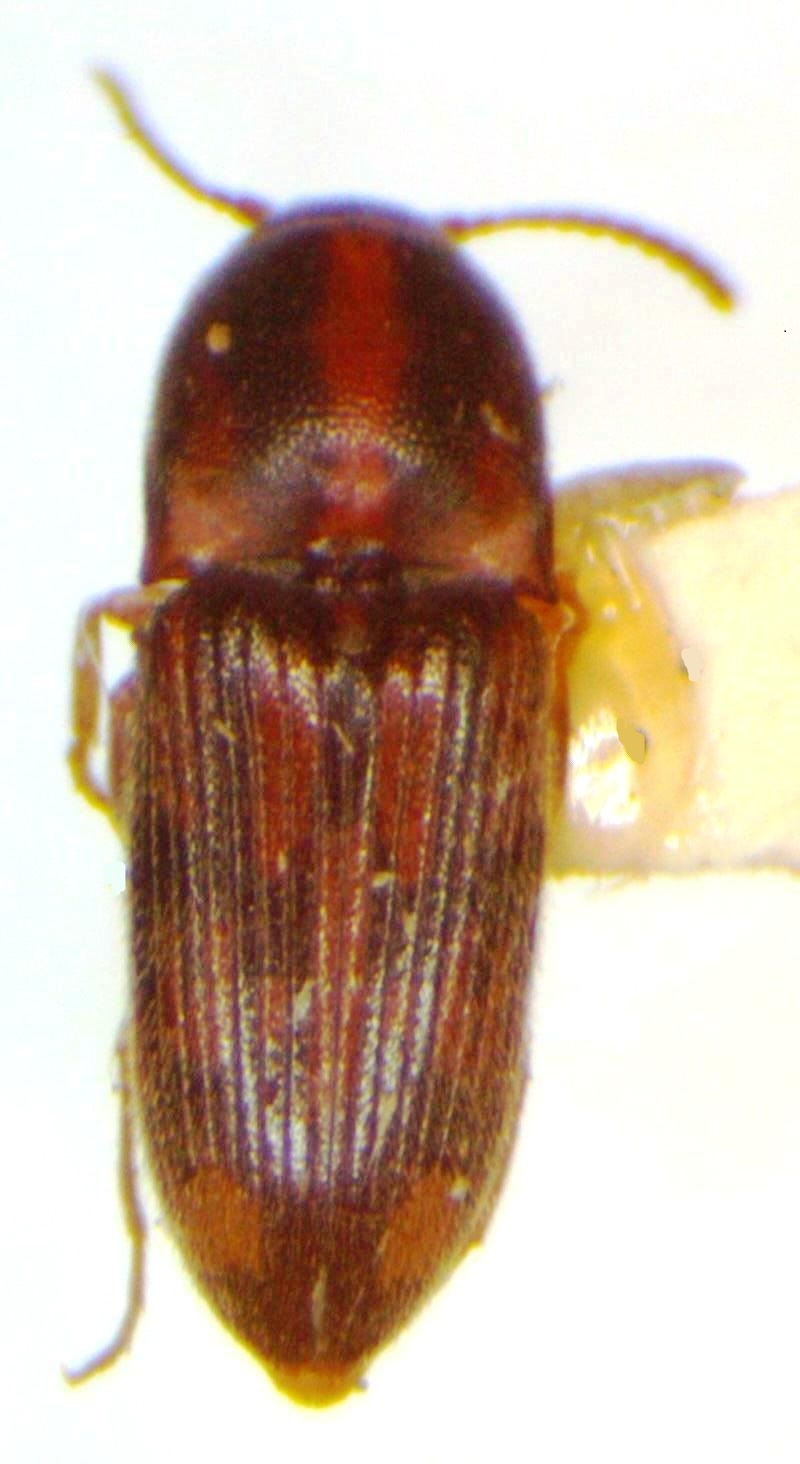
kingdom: Animalia
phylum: Arthropoda
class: Insecta
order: Coleoptera
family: Elateridae
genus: Monocrepidius
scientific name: Monocrepidius bellus
